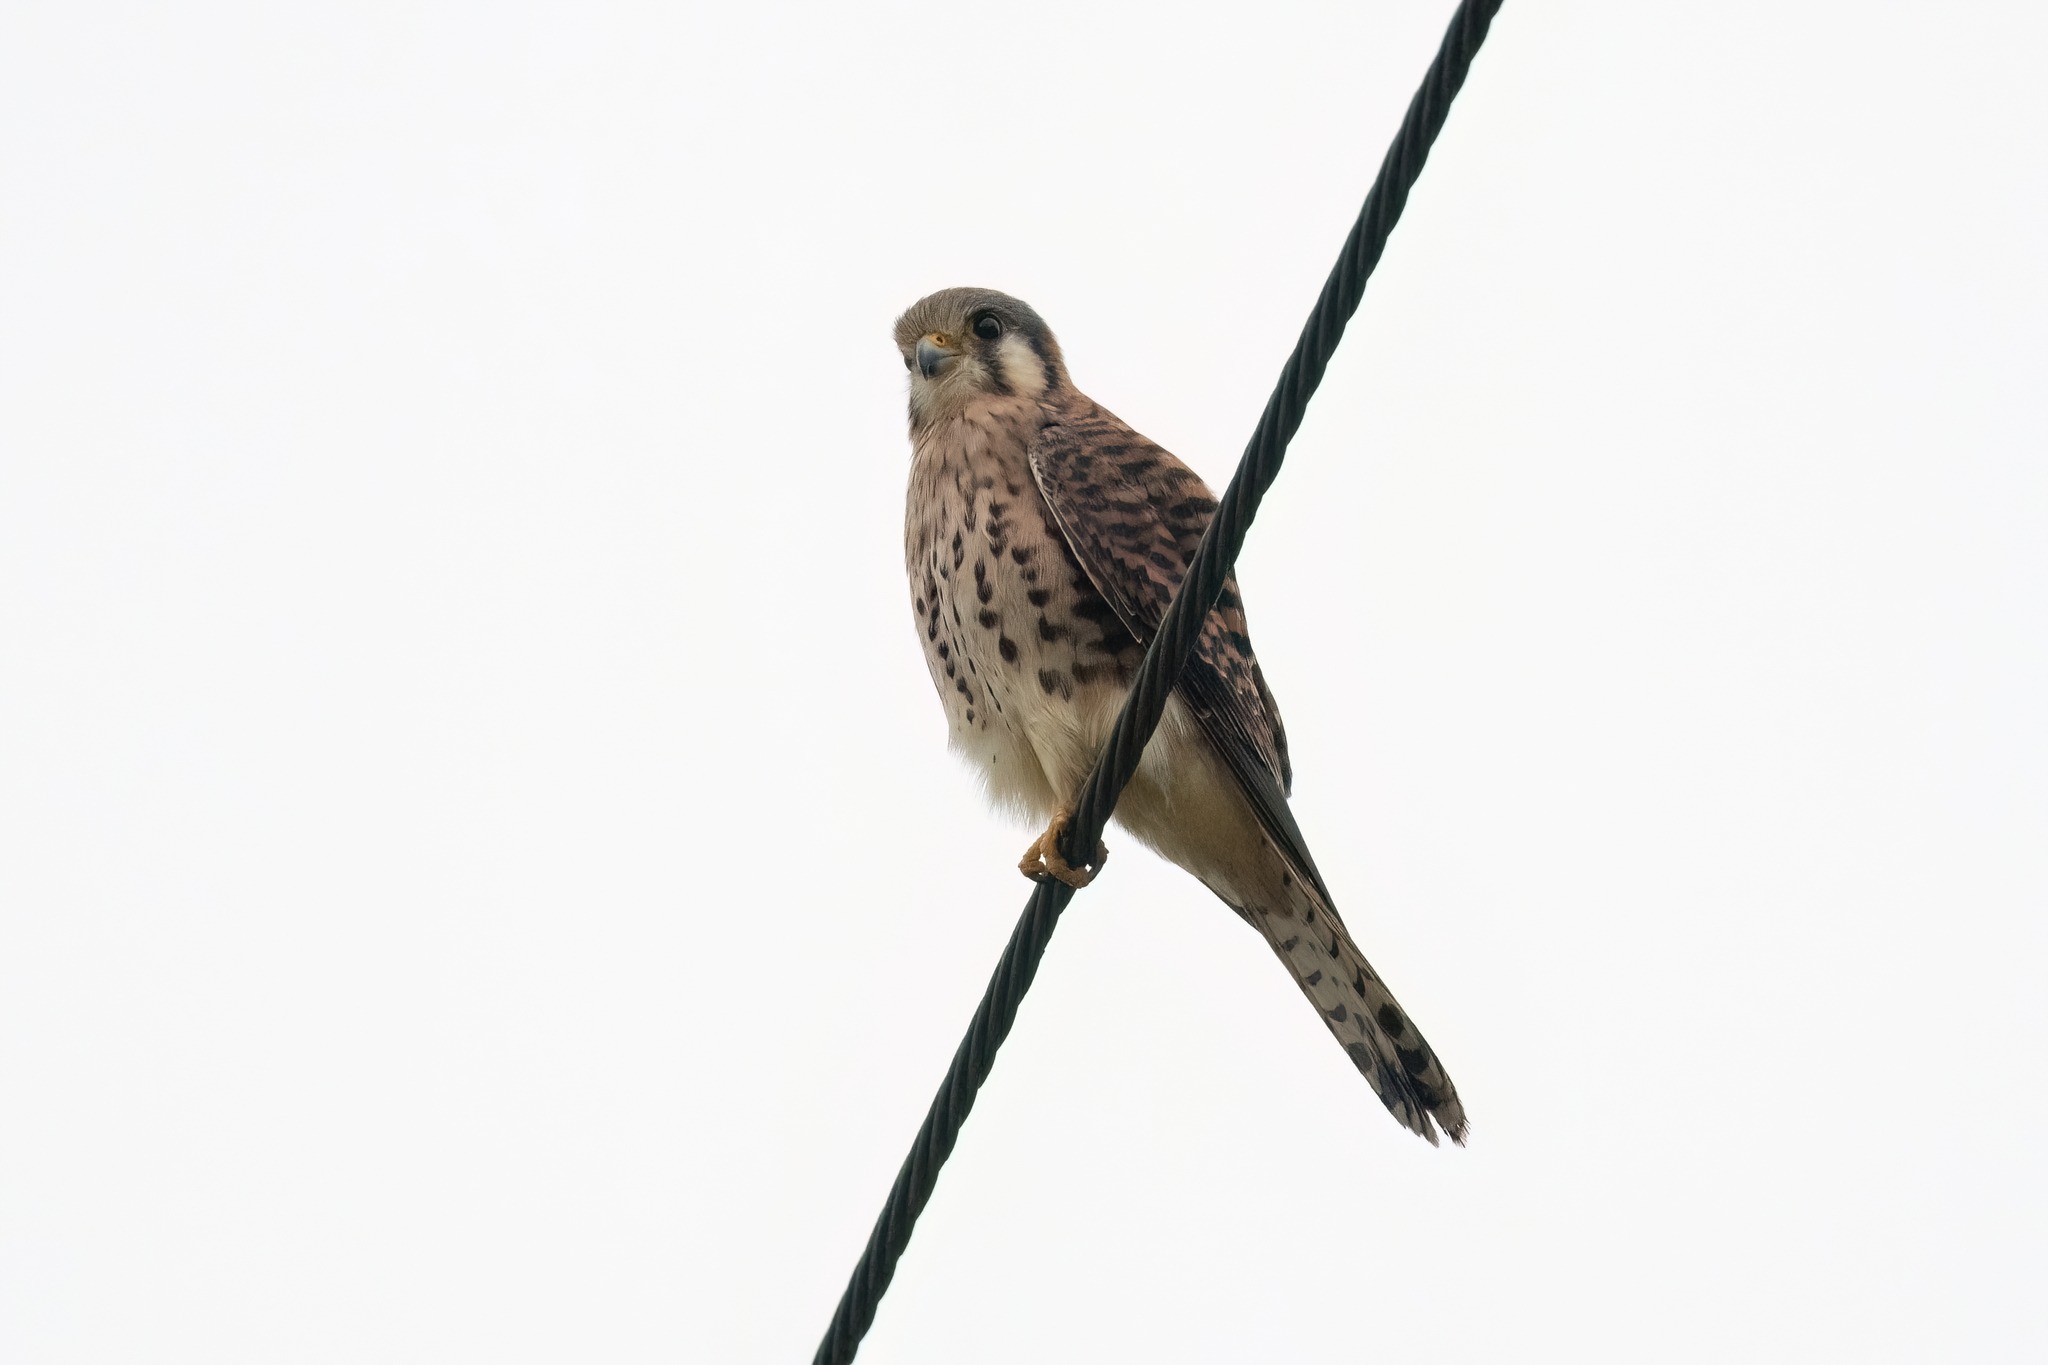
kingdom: Animalia
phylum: Chordata
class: Aves
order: Falconiformes
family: Falconidae
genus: Falco
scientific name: Falco sparverius
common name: American kestrel
